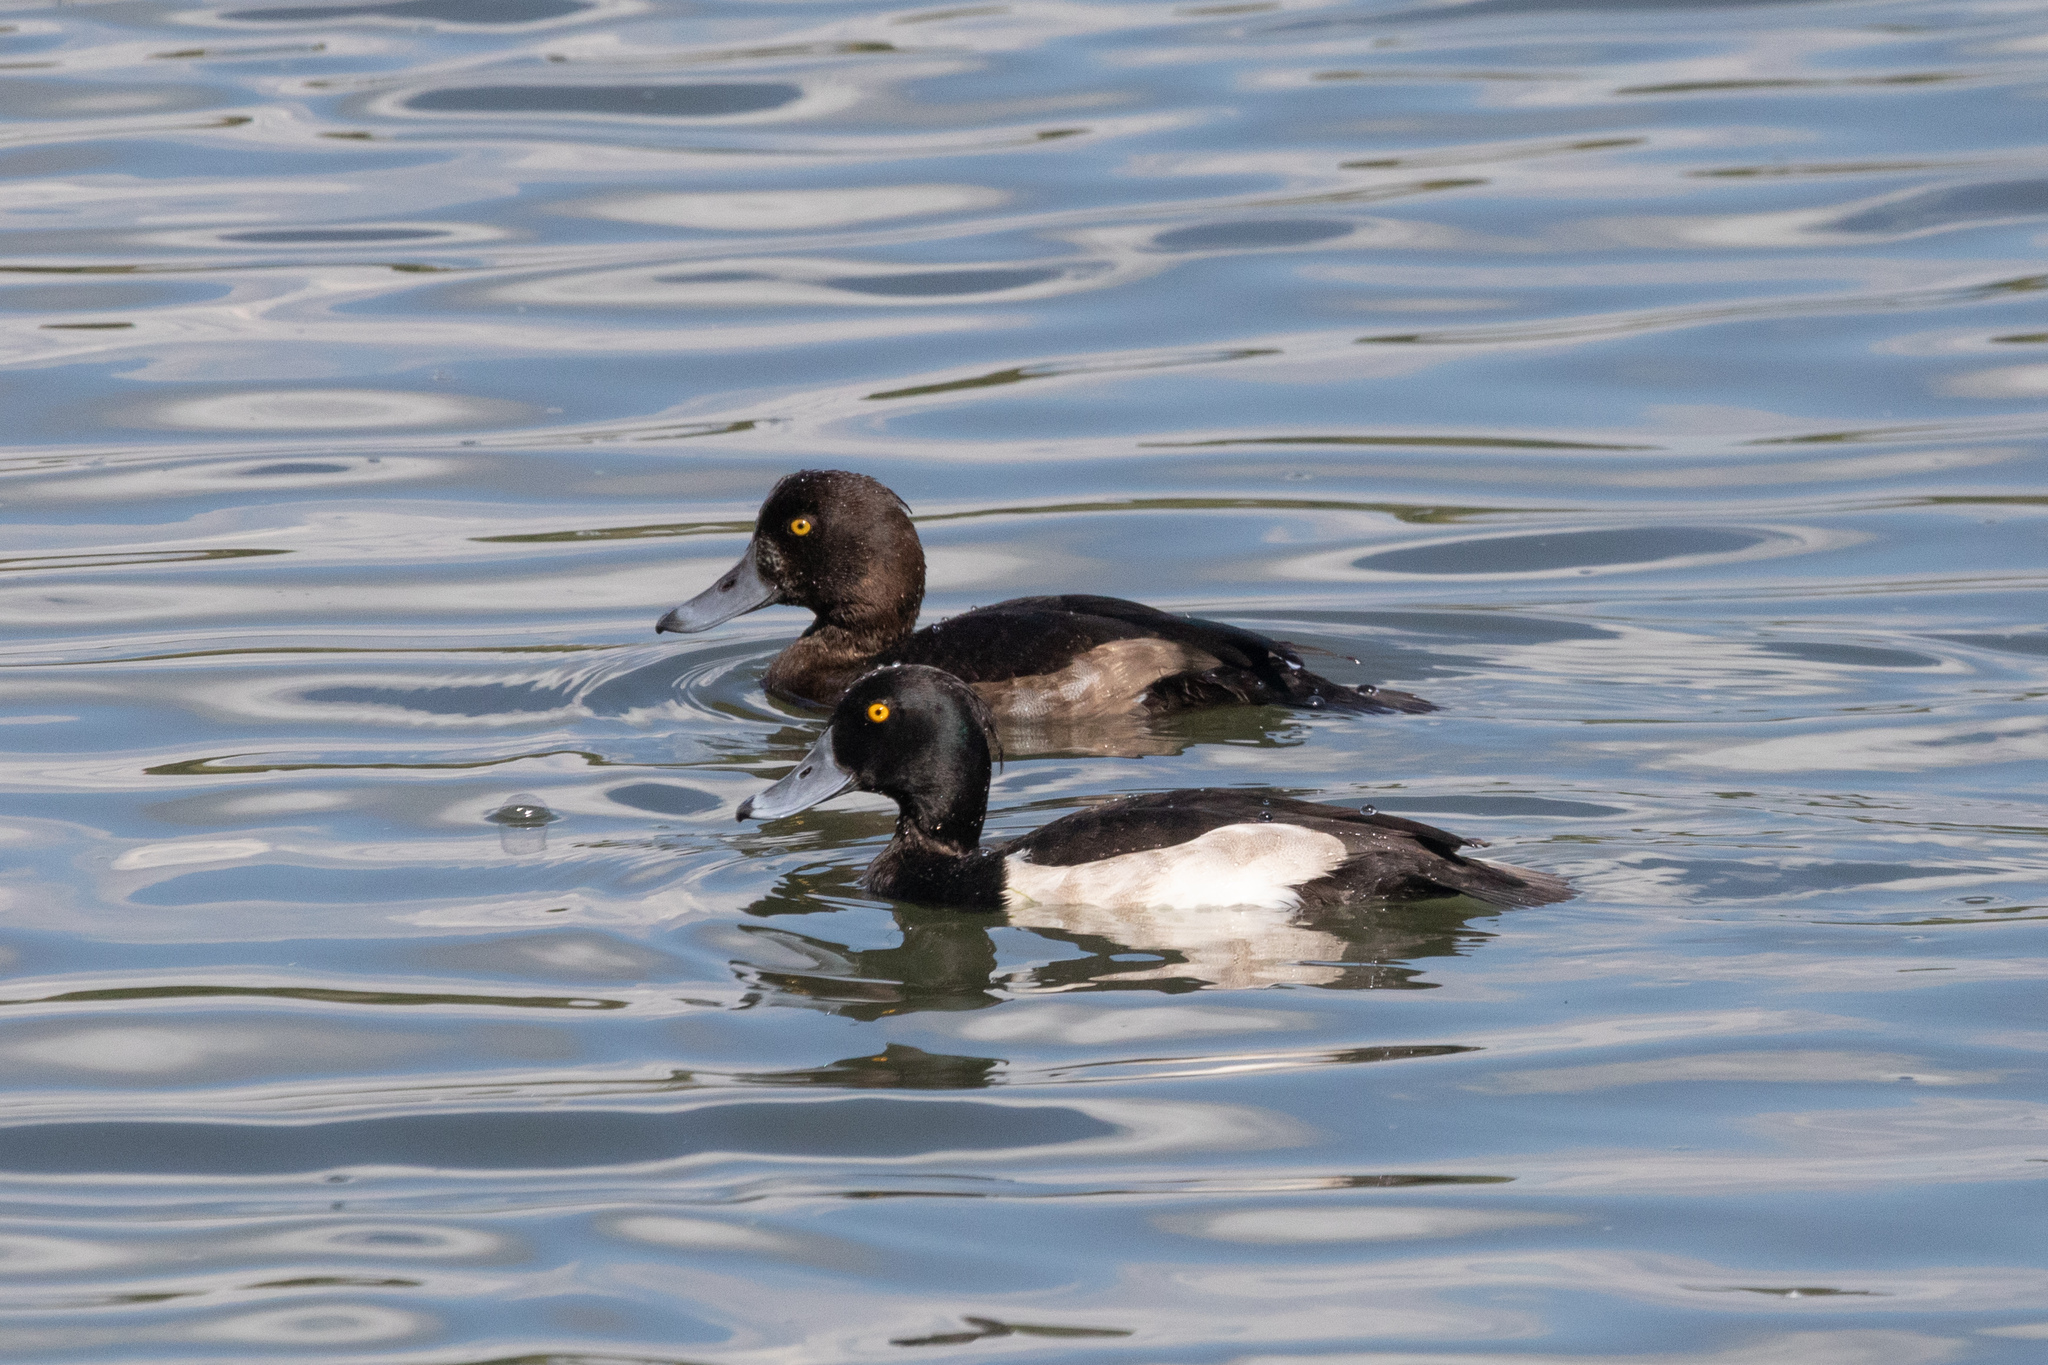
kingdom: Animalia
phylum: Chordata
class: Aves
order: Anseriformes
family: Anatidae
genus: Aythya
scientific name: Aythya fuligula
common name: Tufted duck
